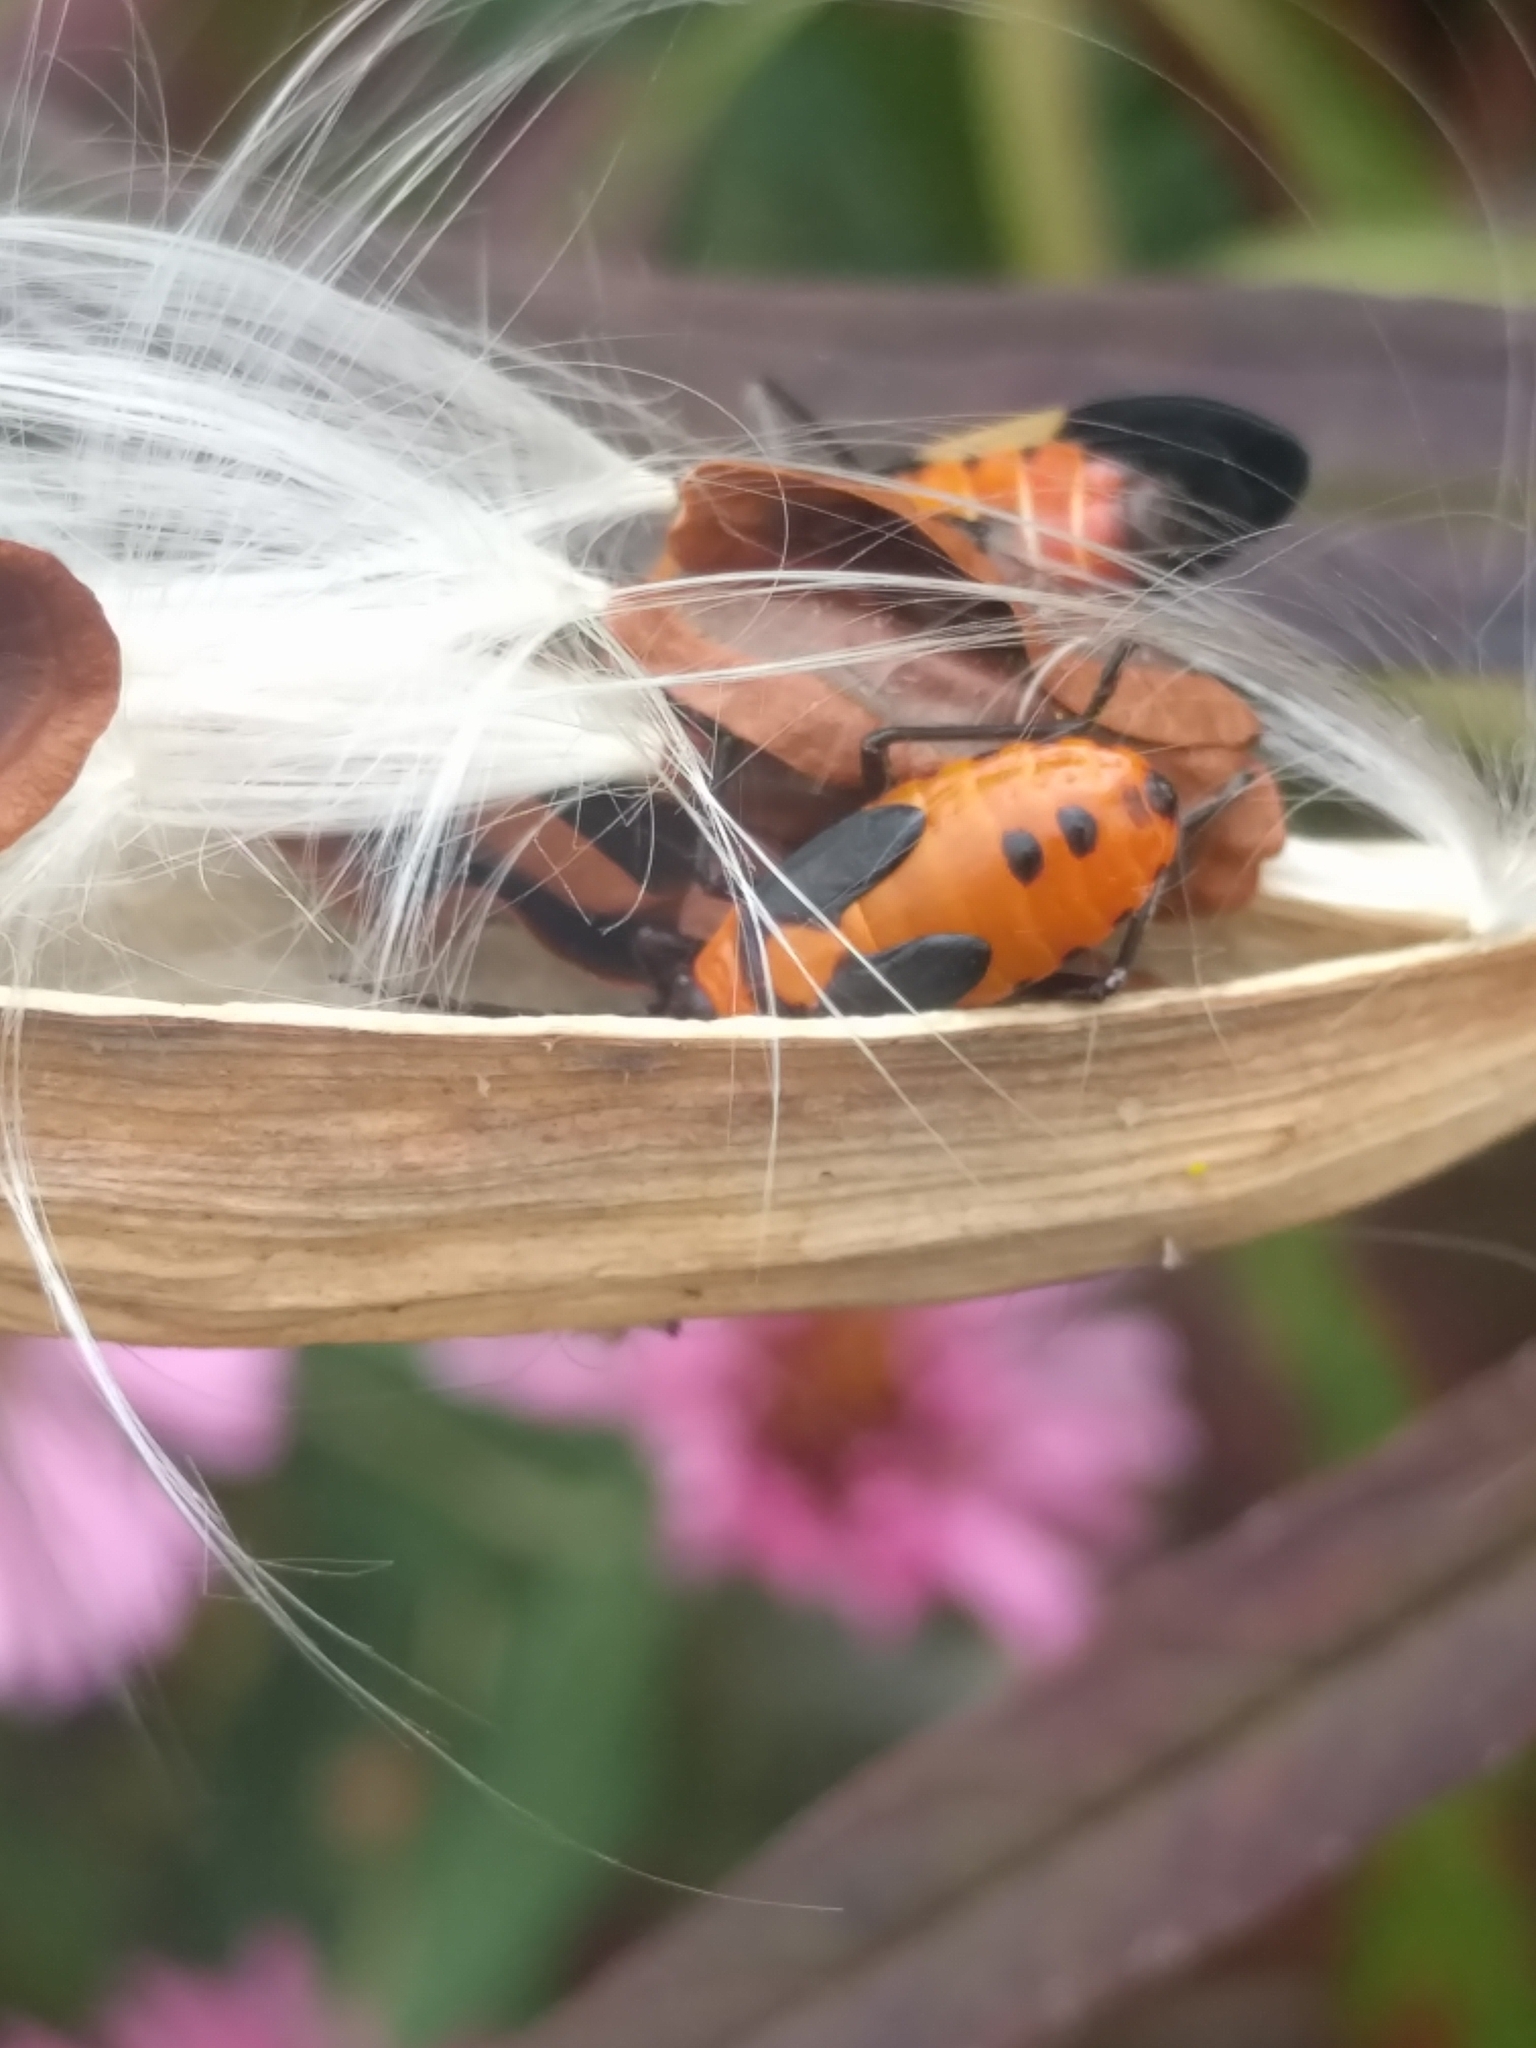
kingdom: Animalia
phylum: Arthropoda
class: Insecta
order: Hemiptera
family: Lygaeidae
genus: Oncopeltus
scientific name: Oncopeltus fasciatus
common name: Large milkweed bug
